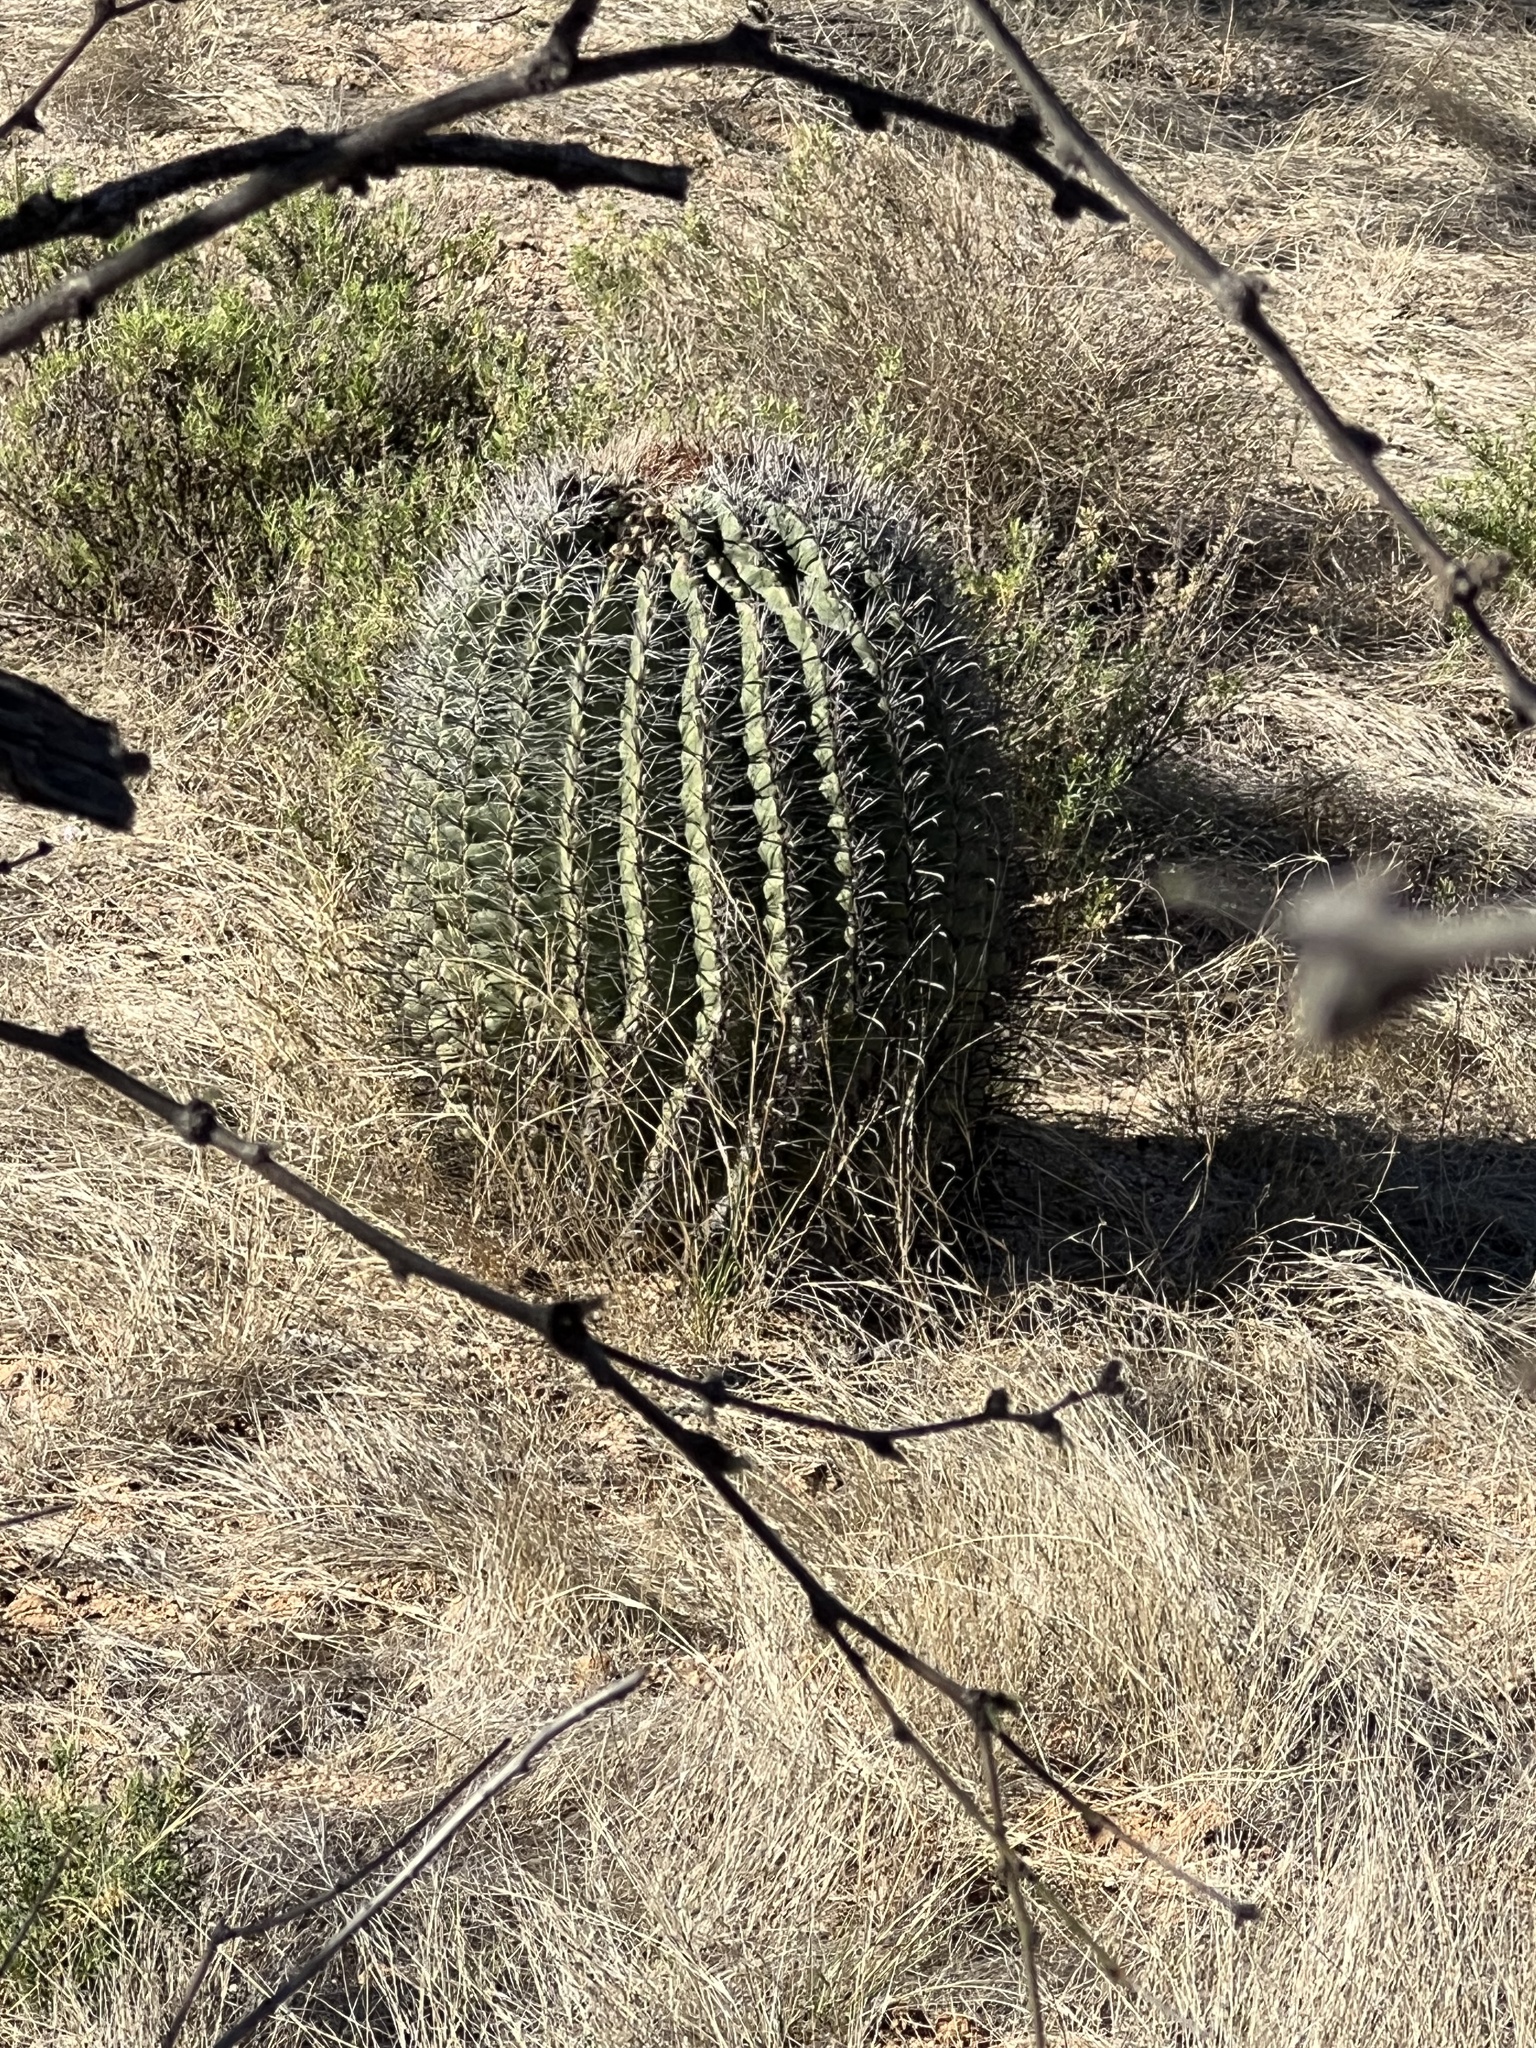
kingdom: Plantae
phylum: Tracheophyta
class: Magnoliopsida
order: Caryophyllales
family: Cactaceae
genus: Ferocactus
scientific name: Ferocactus wislizeni
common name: Candy barrel cactus
